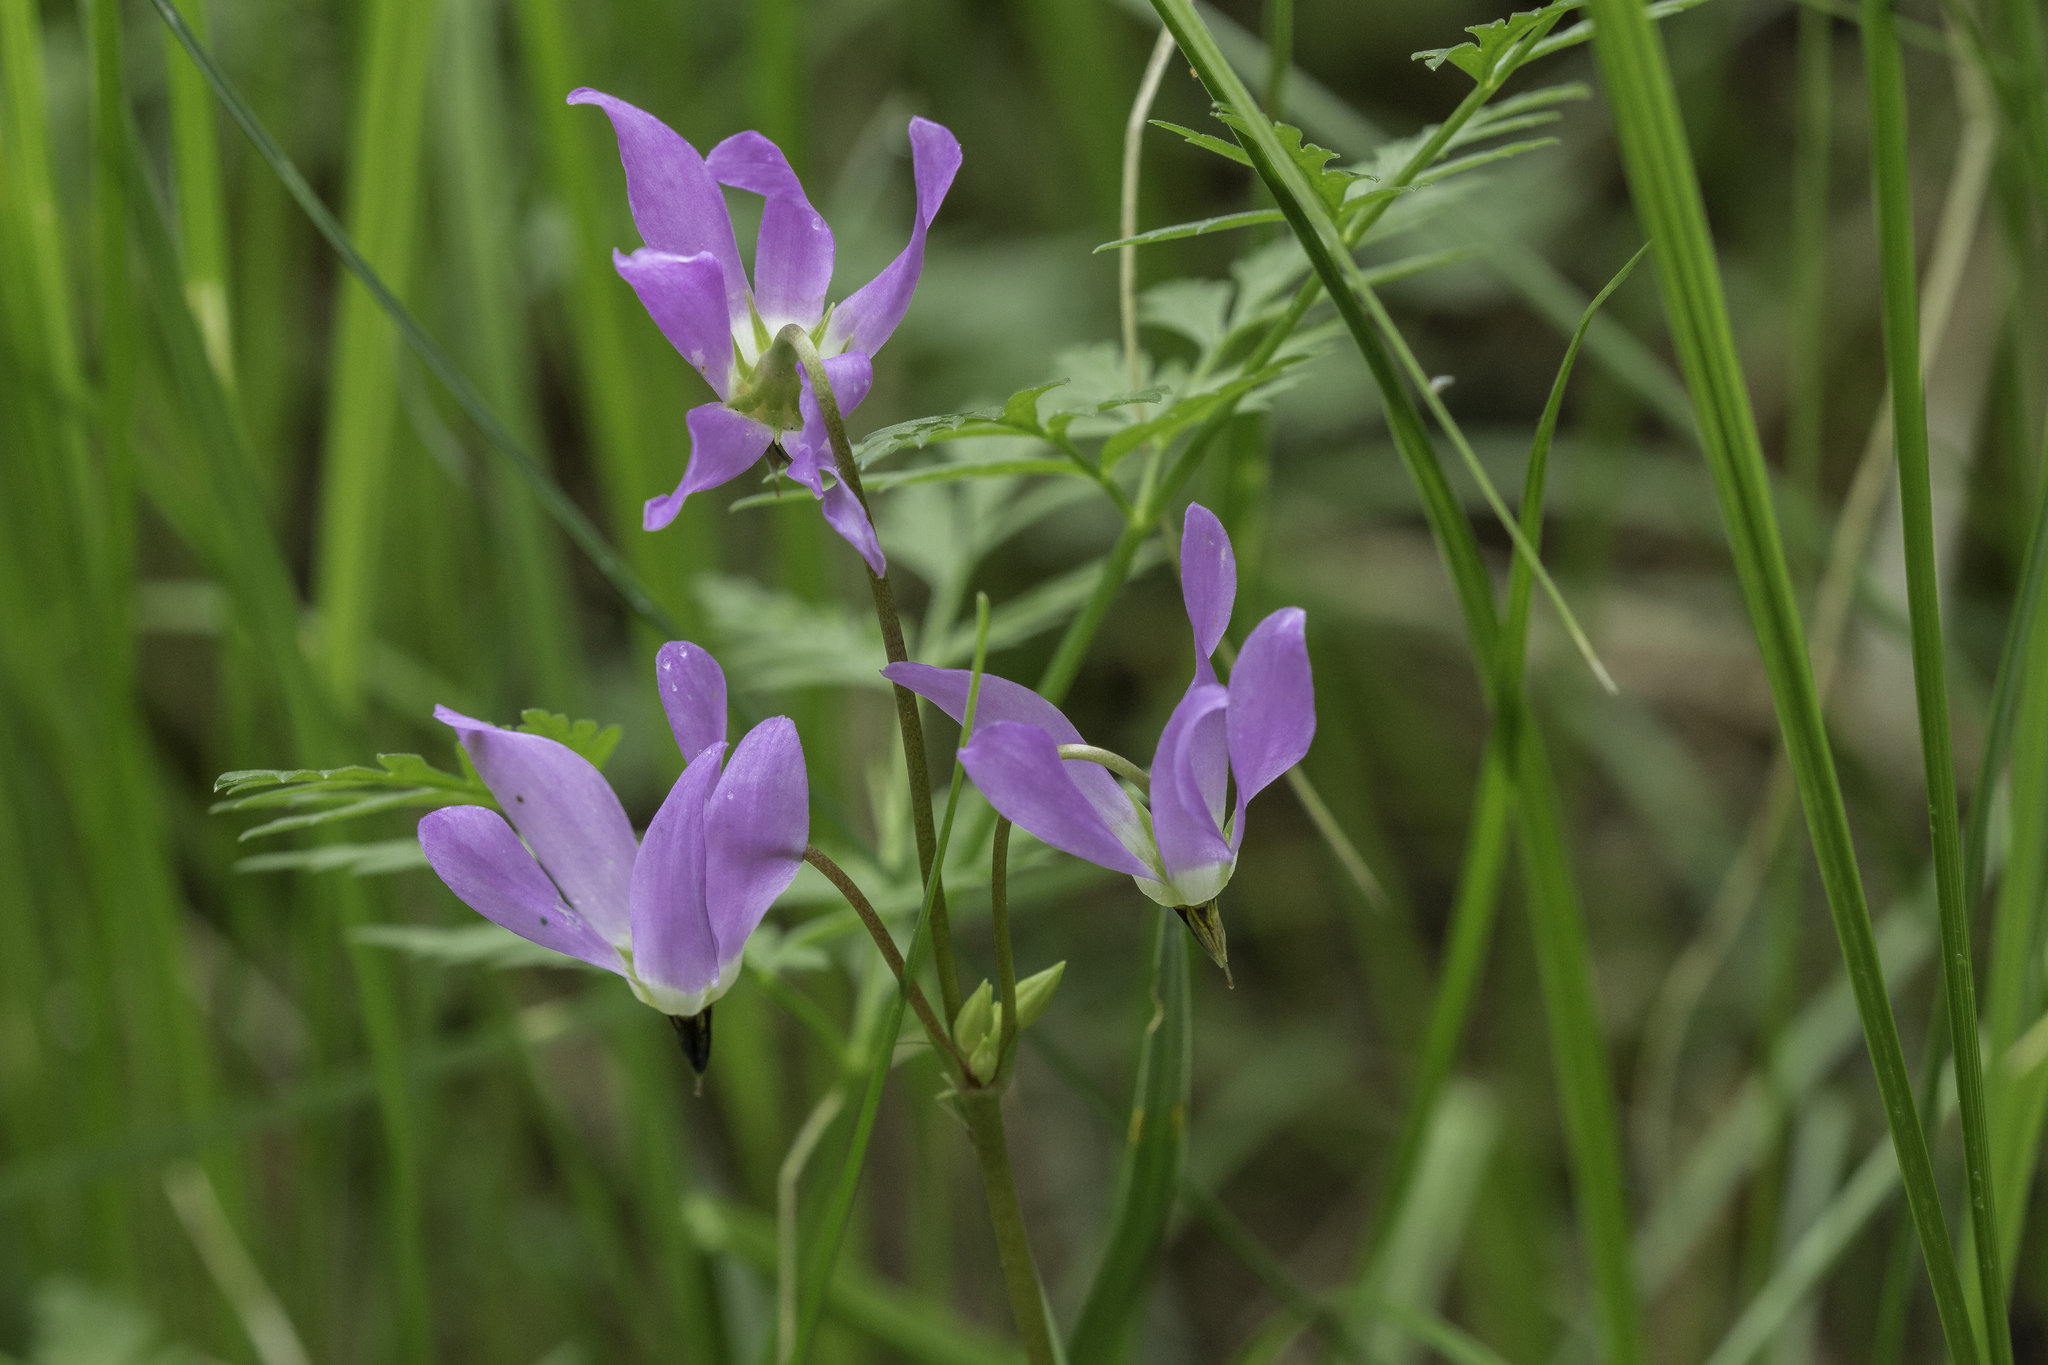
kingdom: Plantae
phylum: Tracheophyta
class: Magnoliopsida
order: Ericales
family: Primulaceae
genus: Dodecatheon
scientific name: Dodecatheon pulchellum
